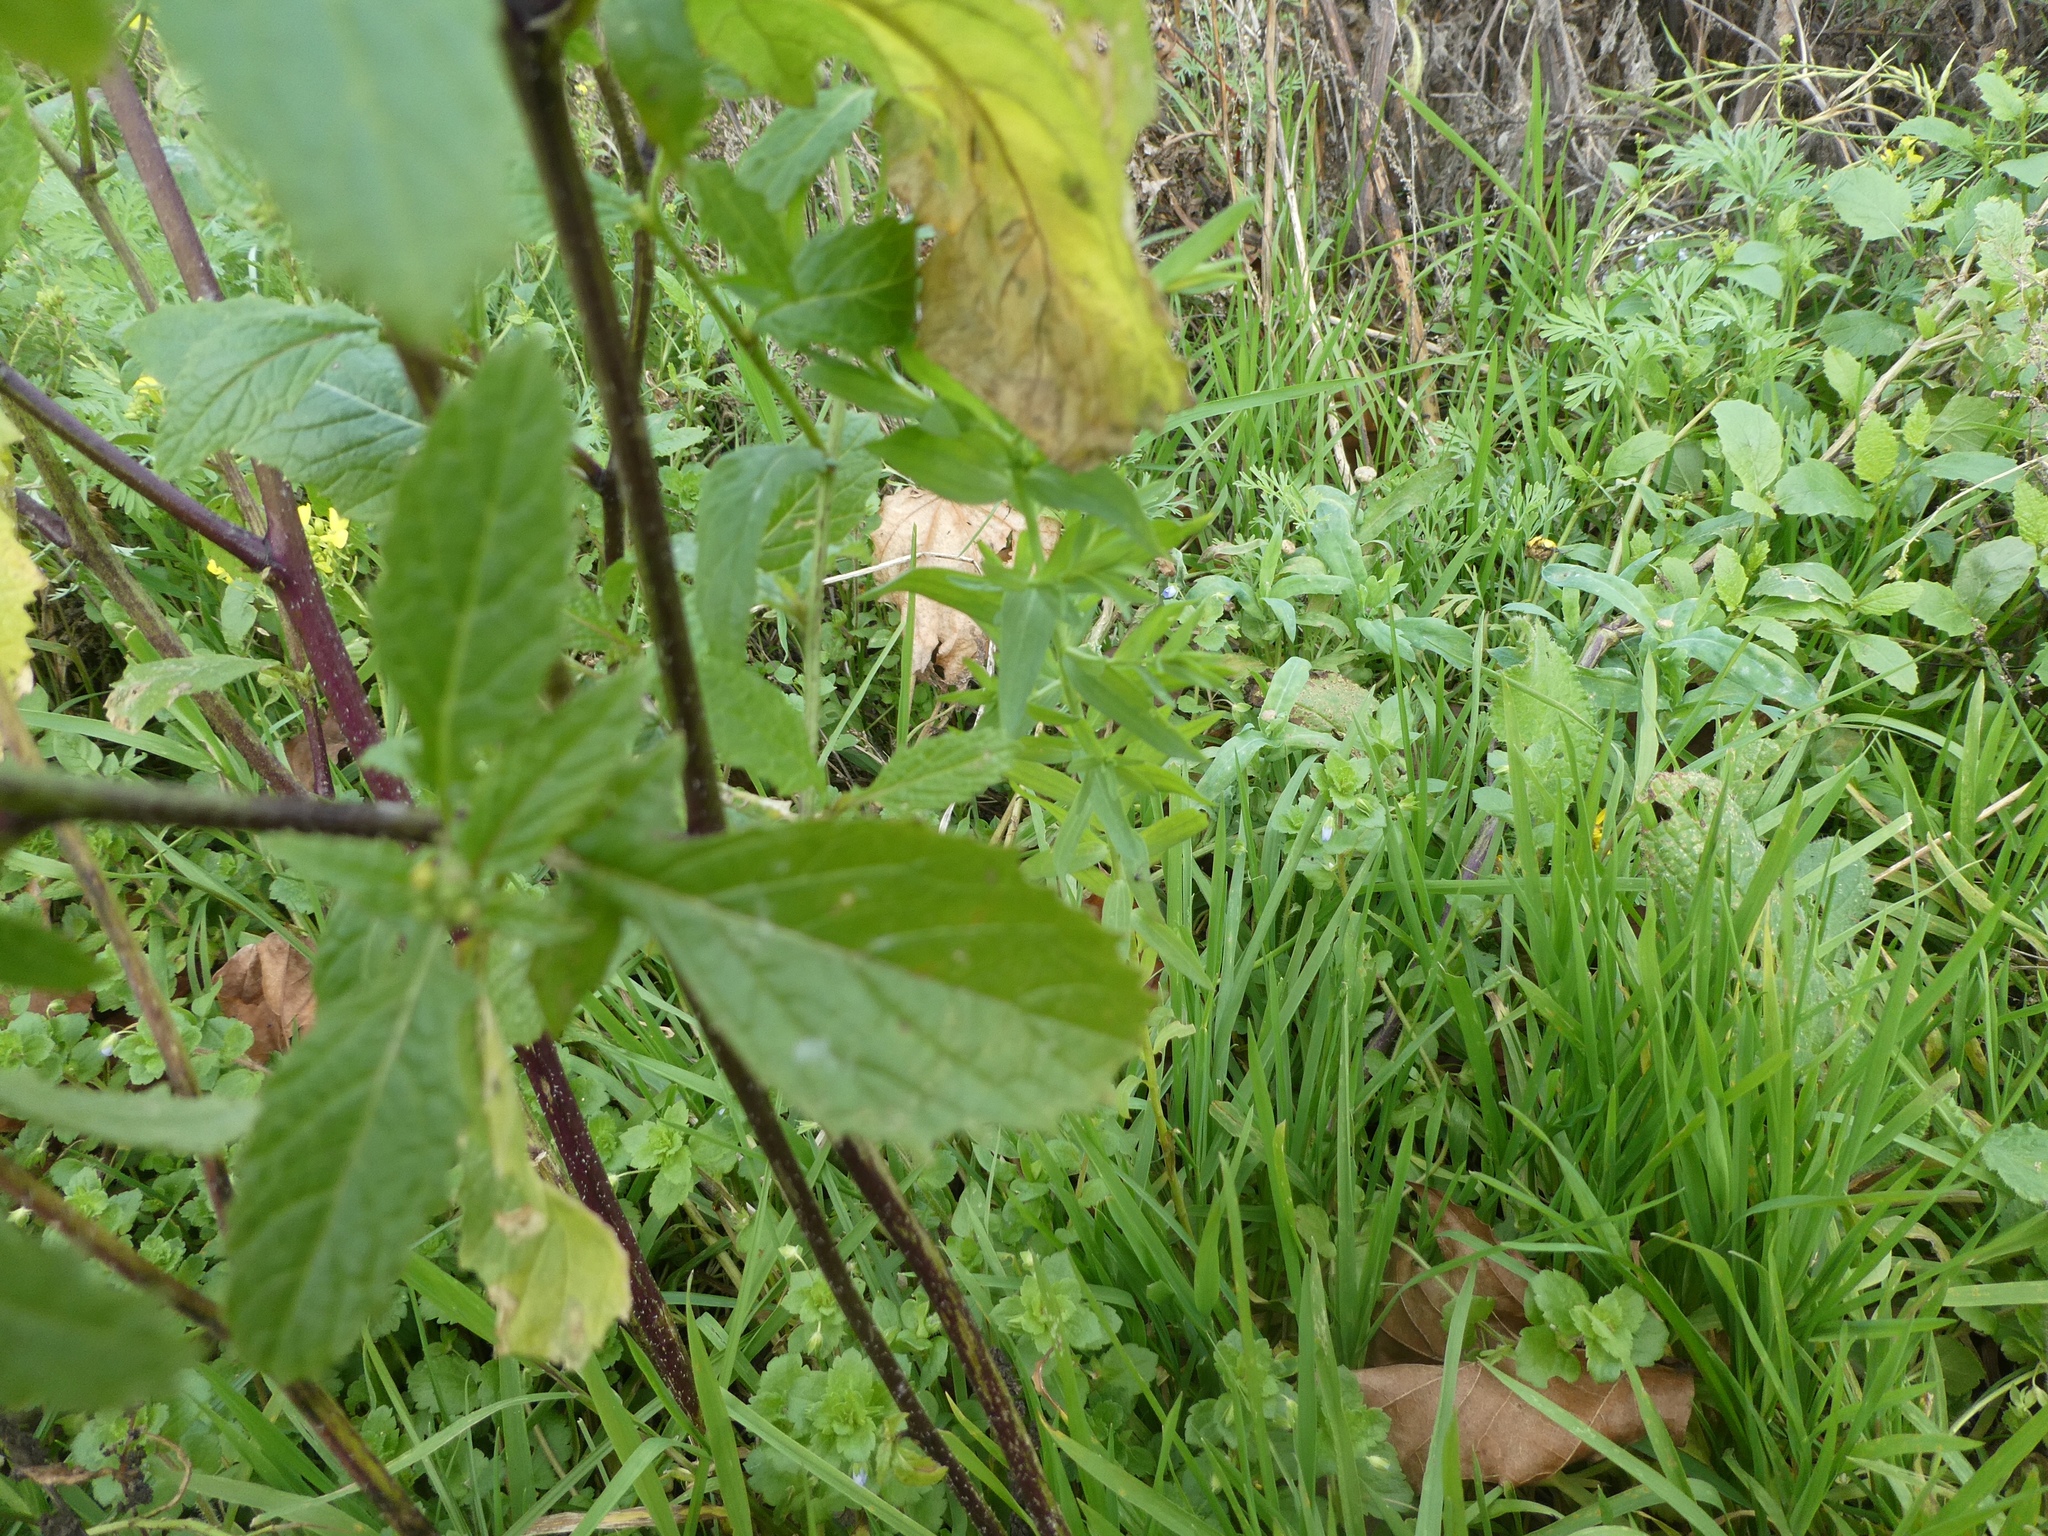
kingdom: Plantae
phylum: Tracheophyta
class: Magnoliopsida
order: Brassicales
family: Brassicaceae
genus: Sinapis
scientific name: Sinapis arvensis
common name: Charlock
